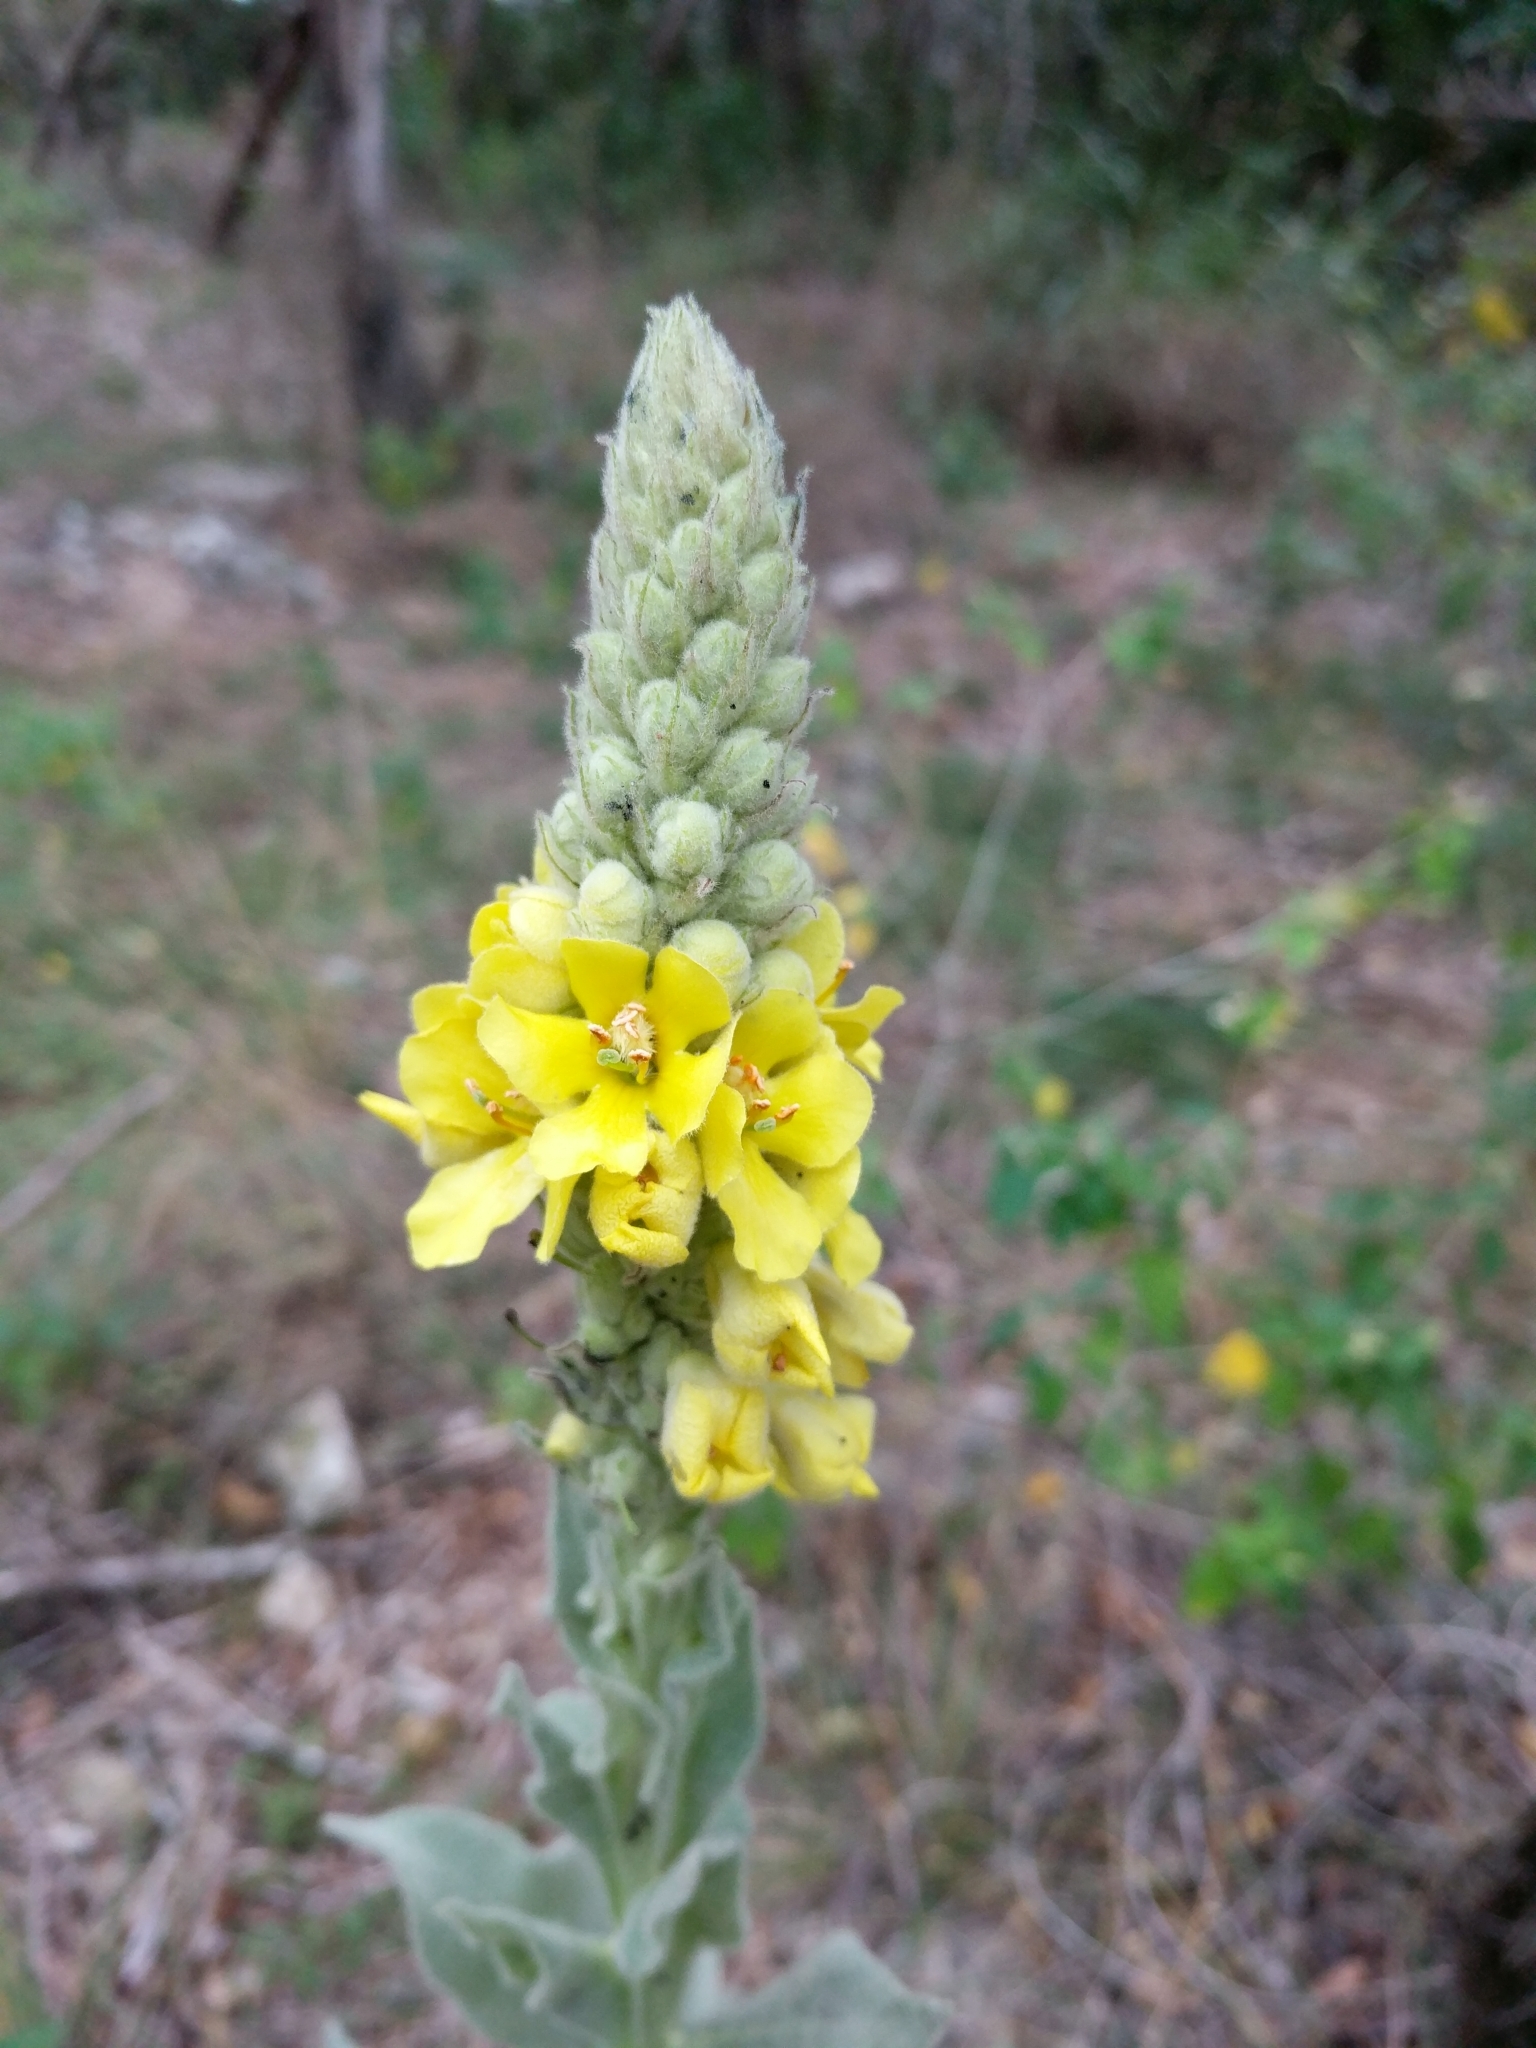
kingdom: Plantae
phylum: Tracheophyta
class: Magnoliopsida
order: Lamiales
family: Scrophulariaceae
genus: Verbascum
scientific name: Verbascum thapsus
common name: Common mullein
